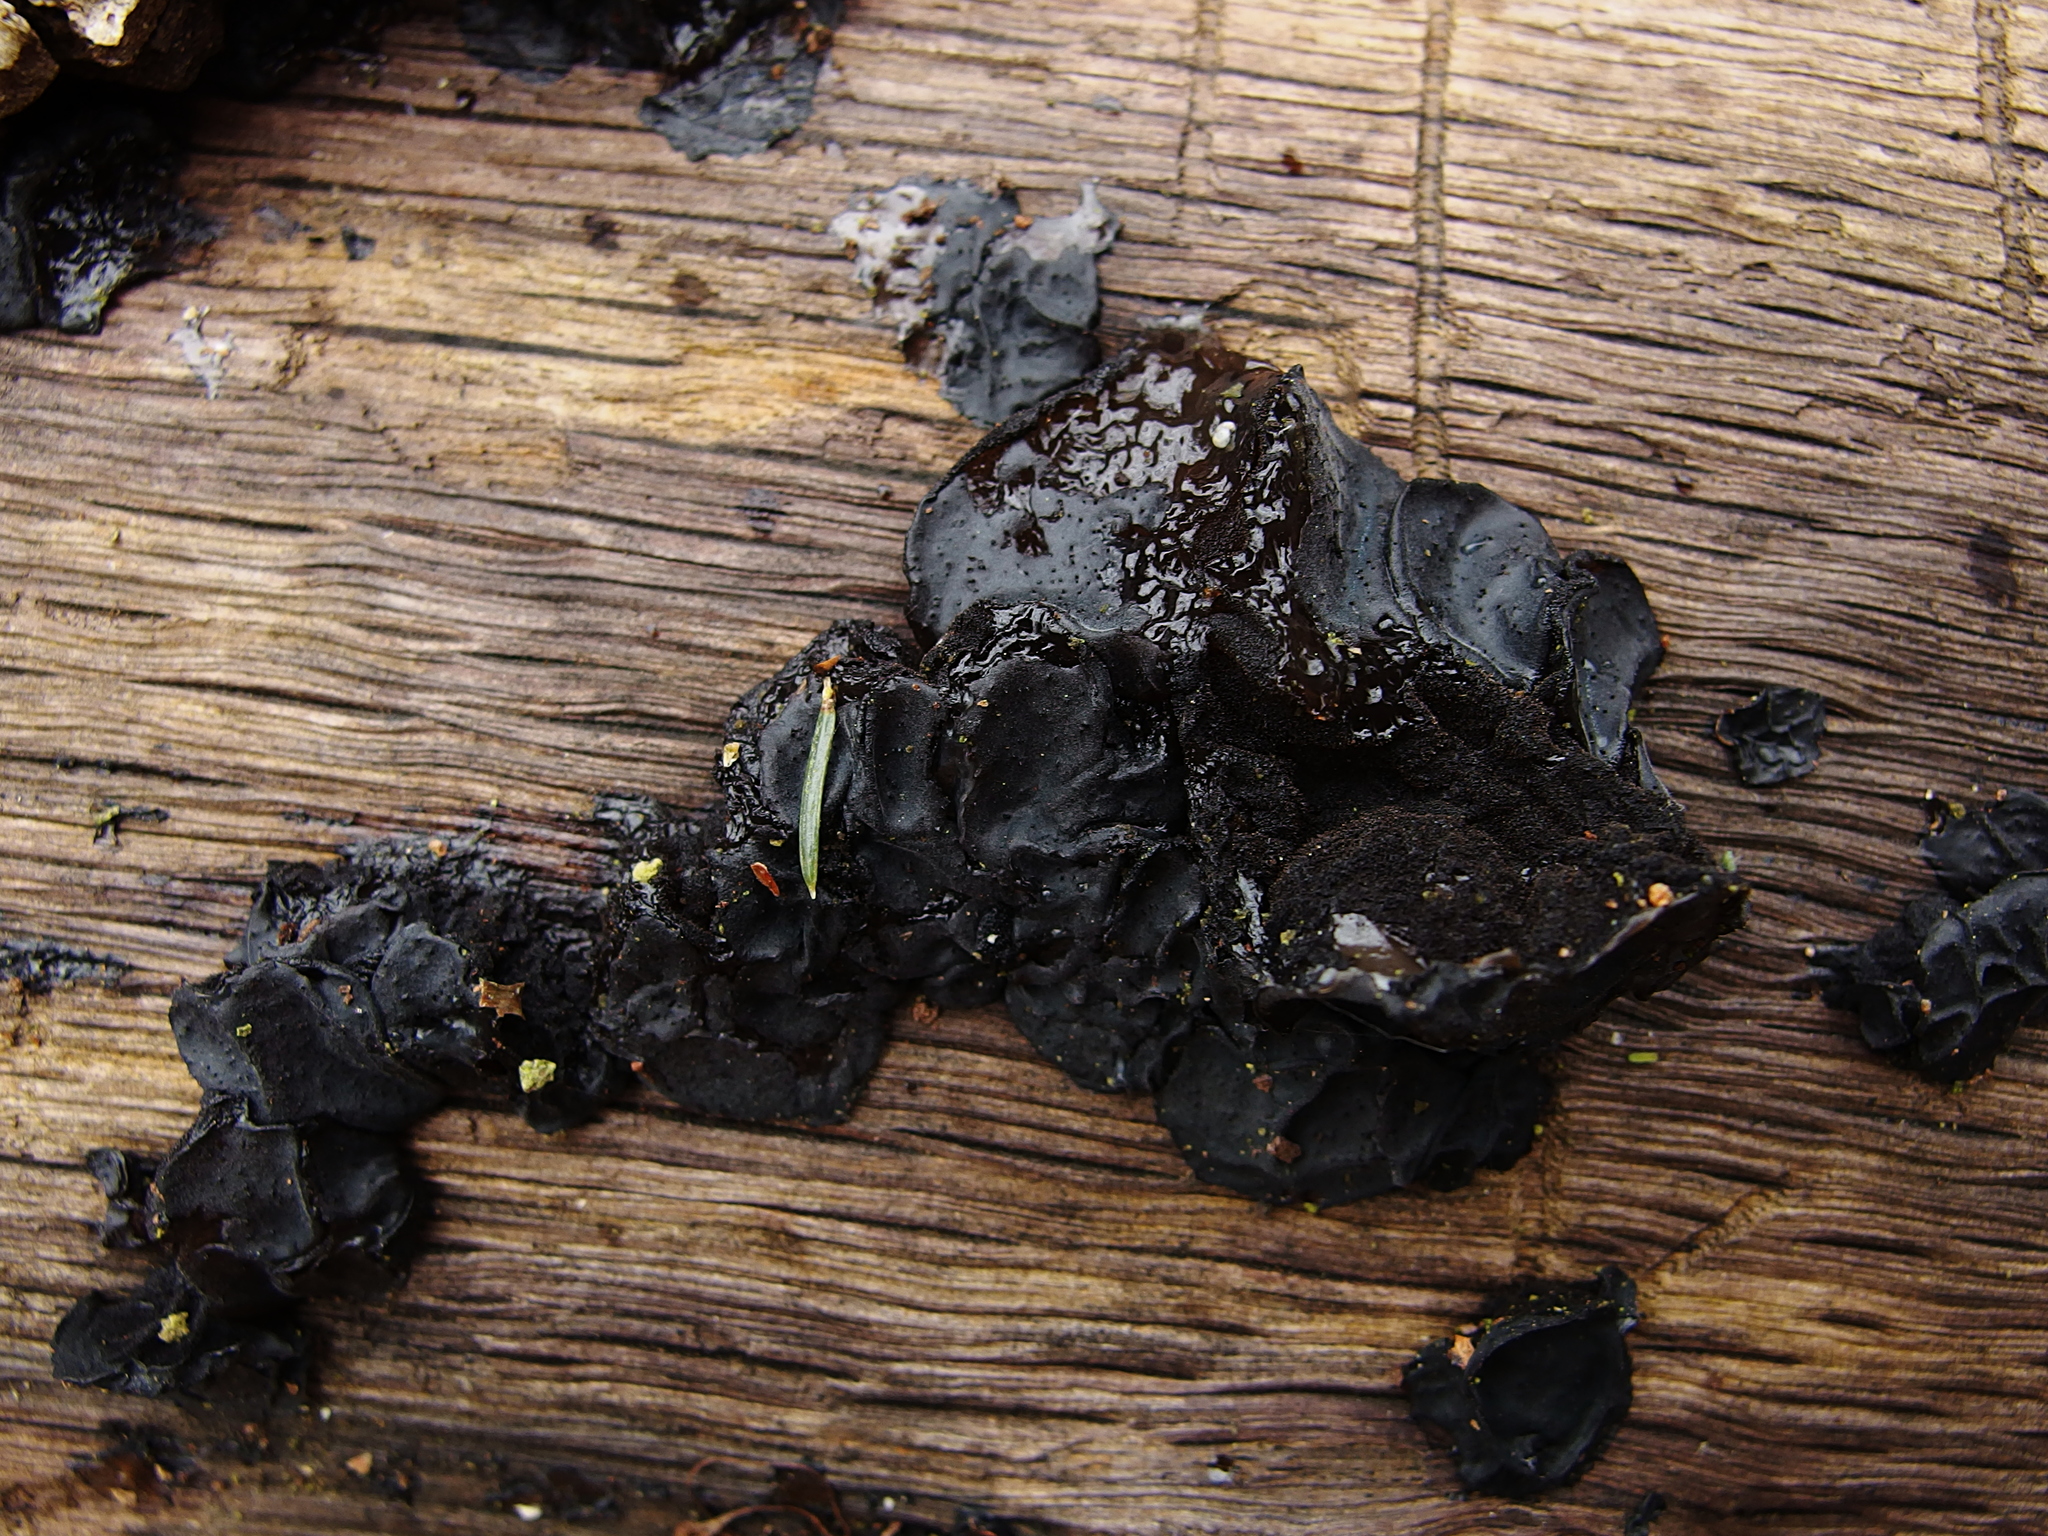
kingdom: Fungi
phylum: Basidiomycota
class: Agaricomycetes
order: Auriculariales
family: Auriculariaceae
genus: Exidia
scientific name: Exidia glandulosa
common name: Witches' butter
